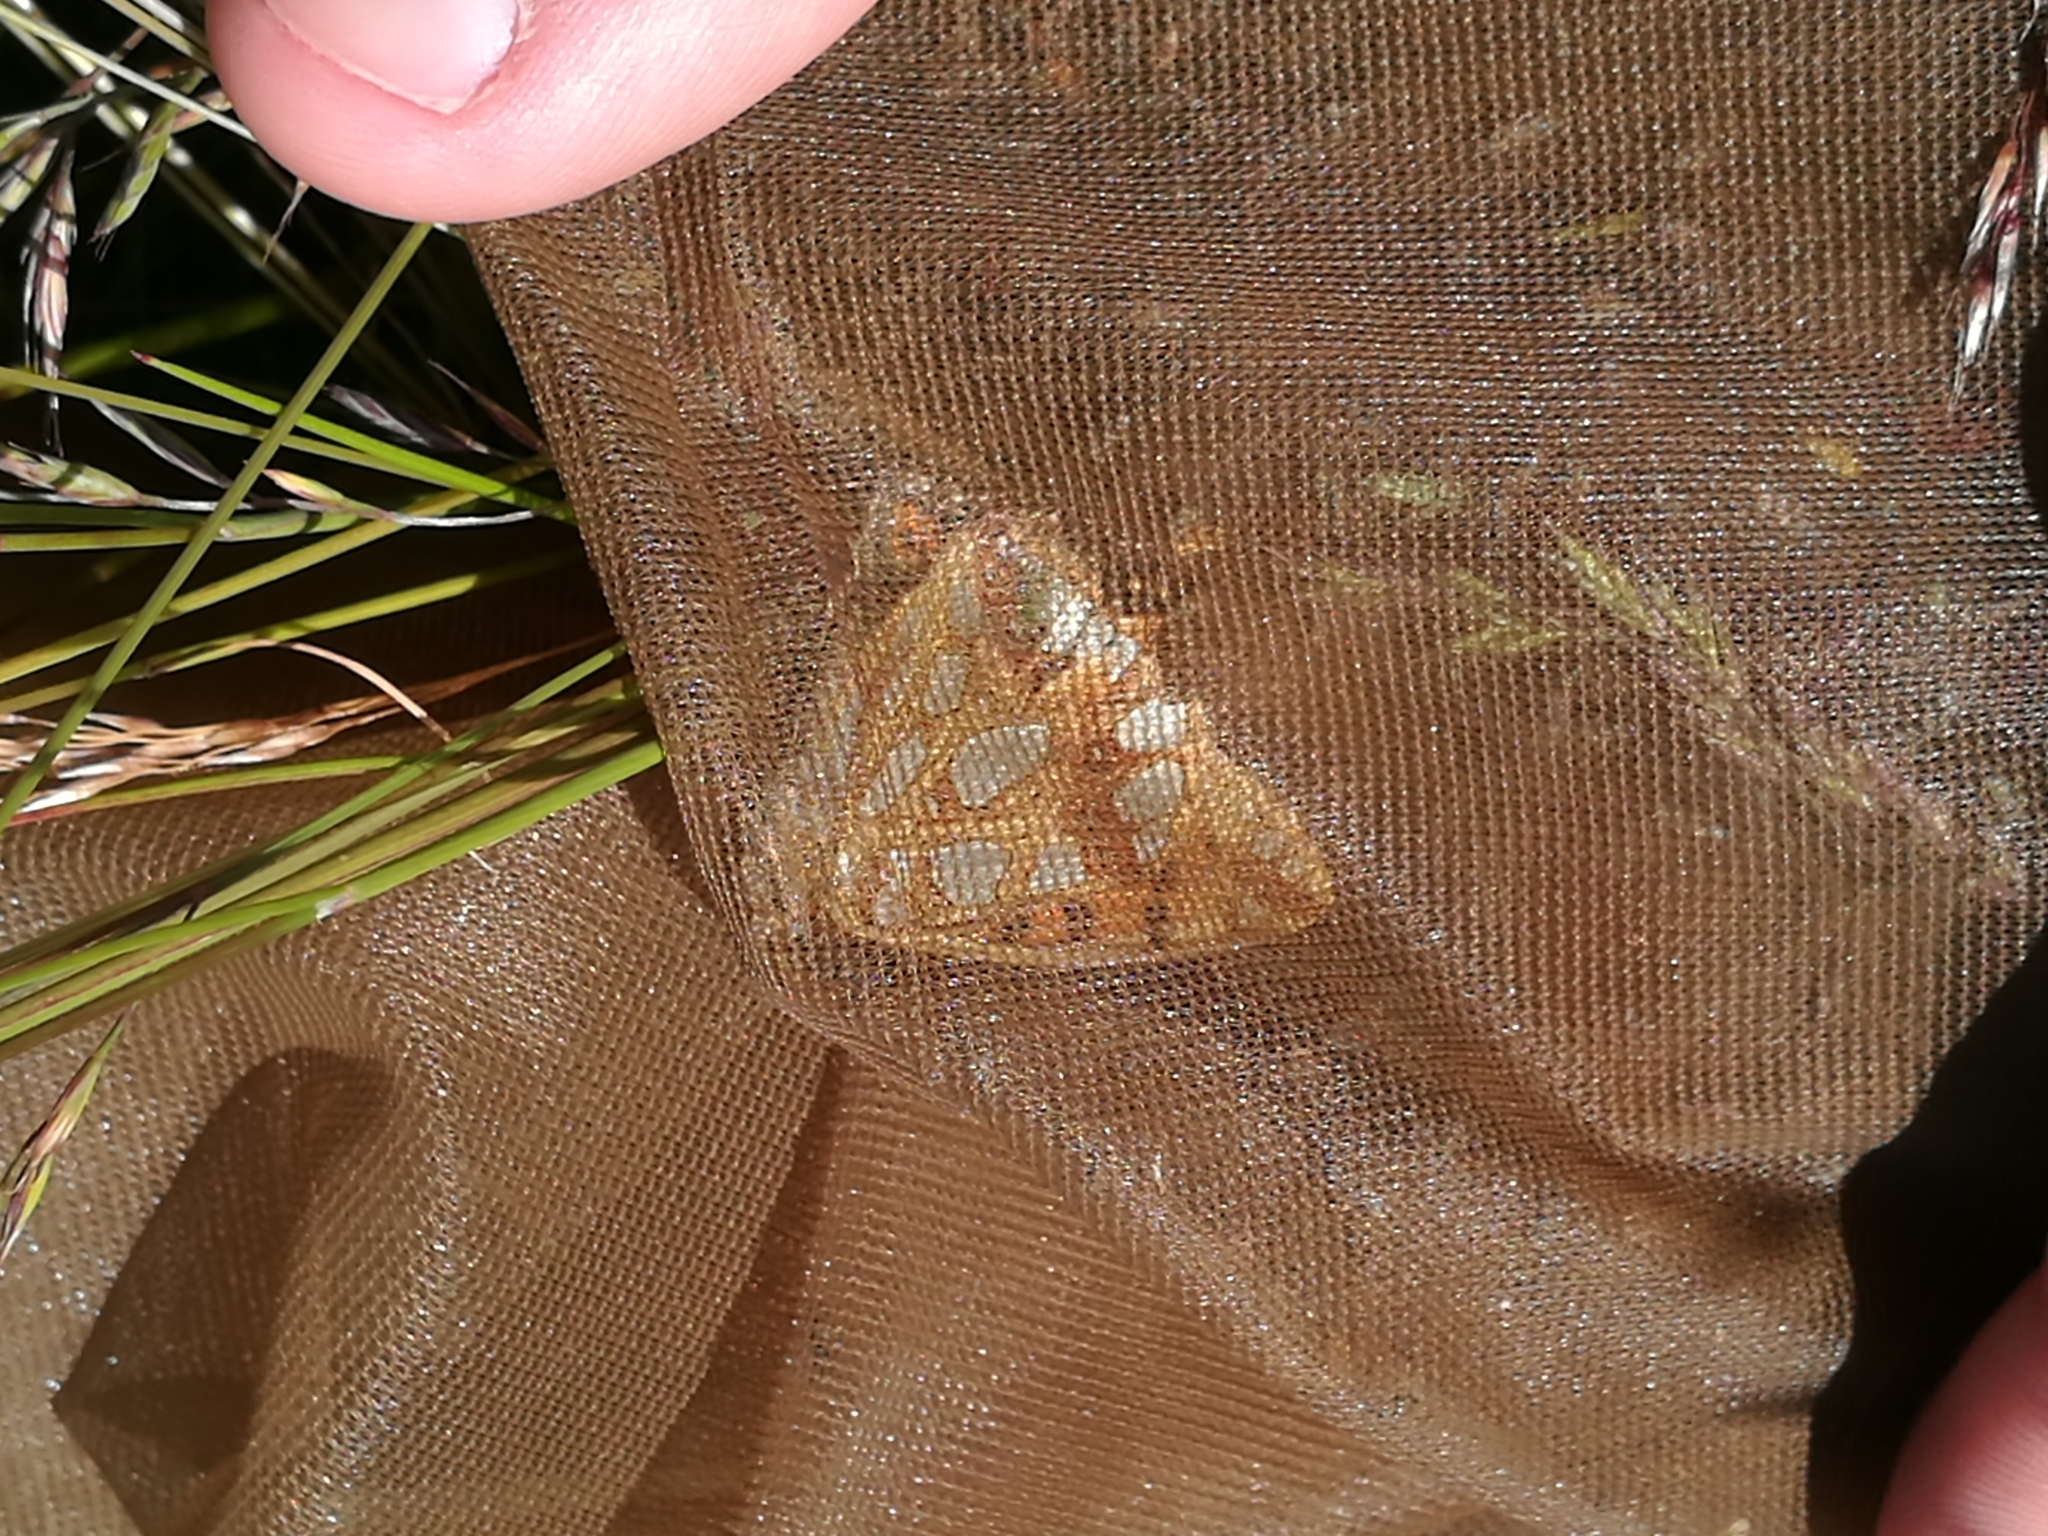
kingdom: Animalia
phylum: Arthropoda
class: Insecta
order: Lepidoptera
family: Nymphalidae
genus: Issoria
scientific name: Issoria lathonia
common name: Queen of spain fritillary
